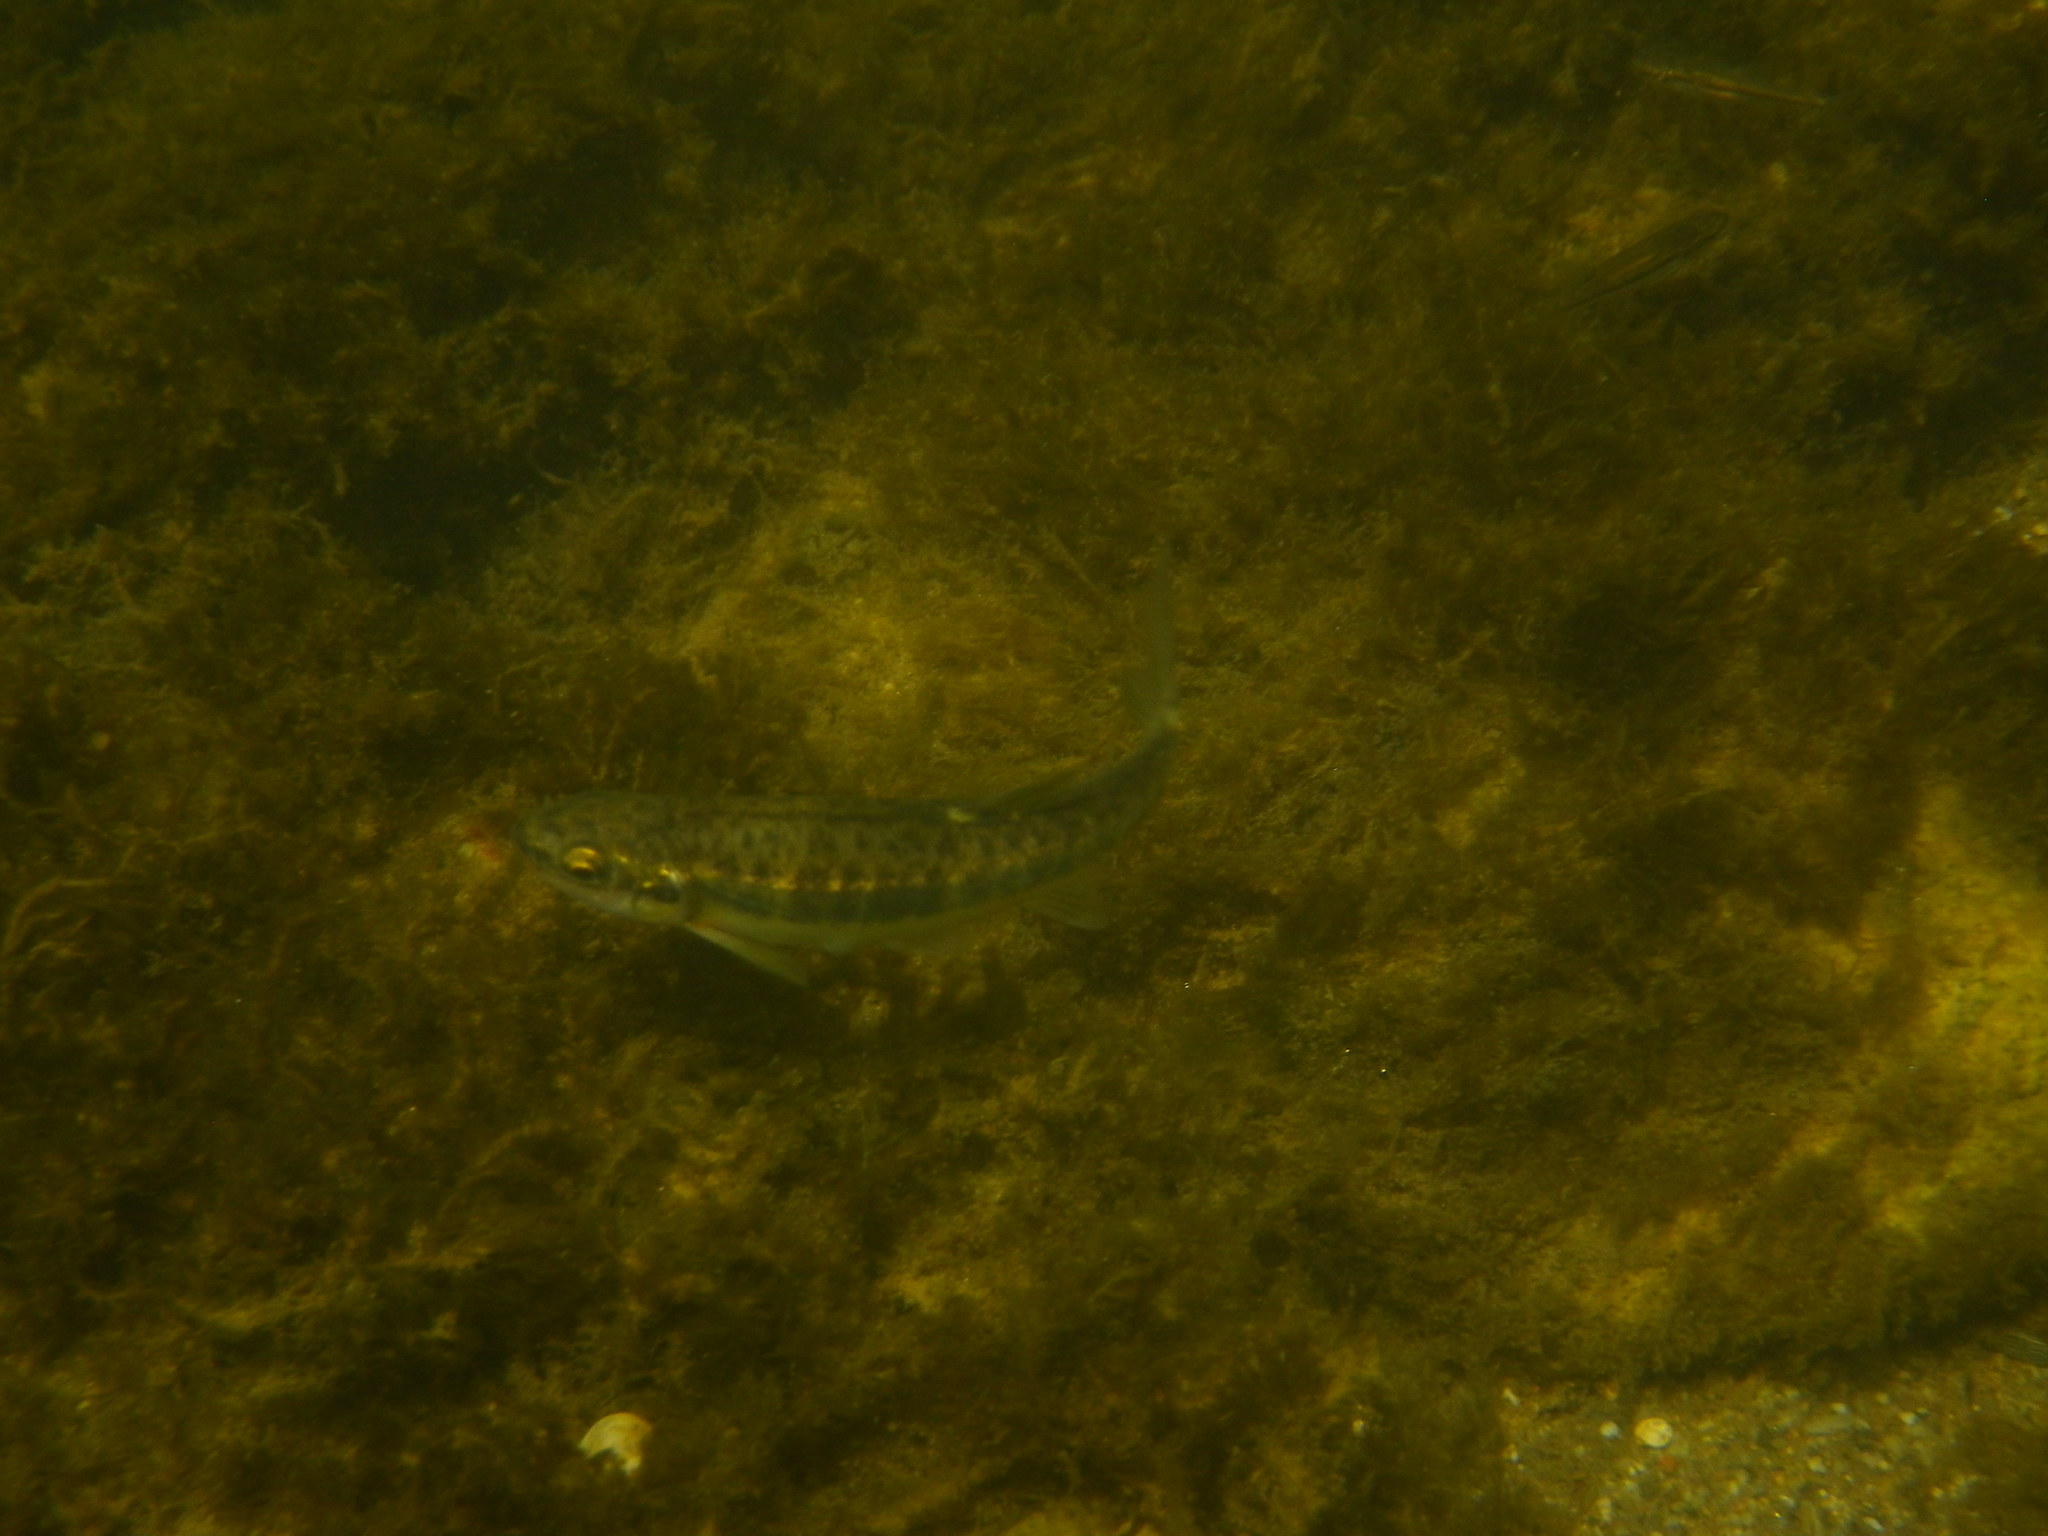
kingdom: Animalia
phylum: Chordata
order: Cypriniformes
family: Cyprinidae
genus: Phoxinus
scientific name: Phoxinus septimaniae
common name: Languedoc minnow
